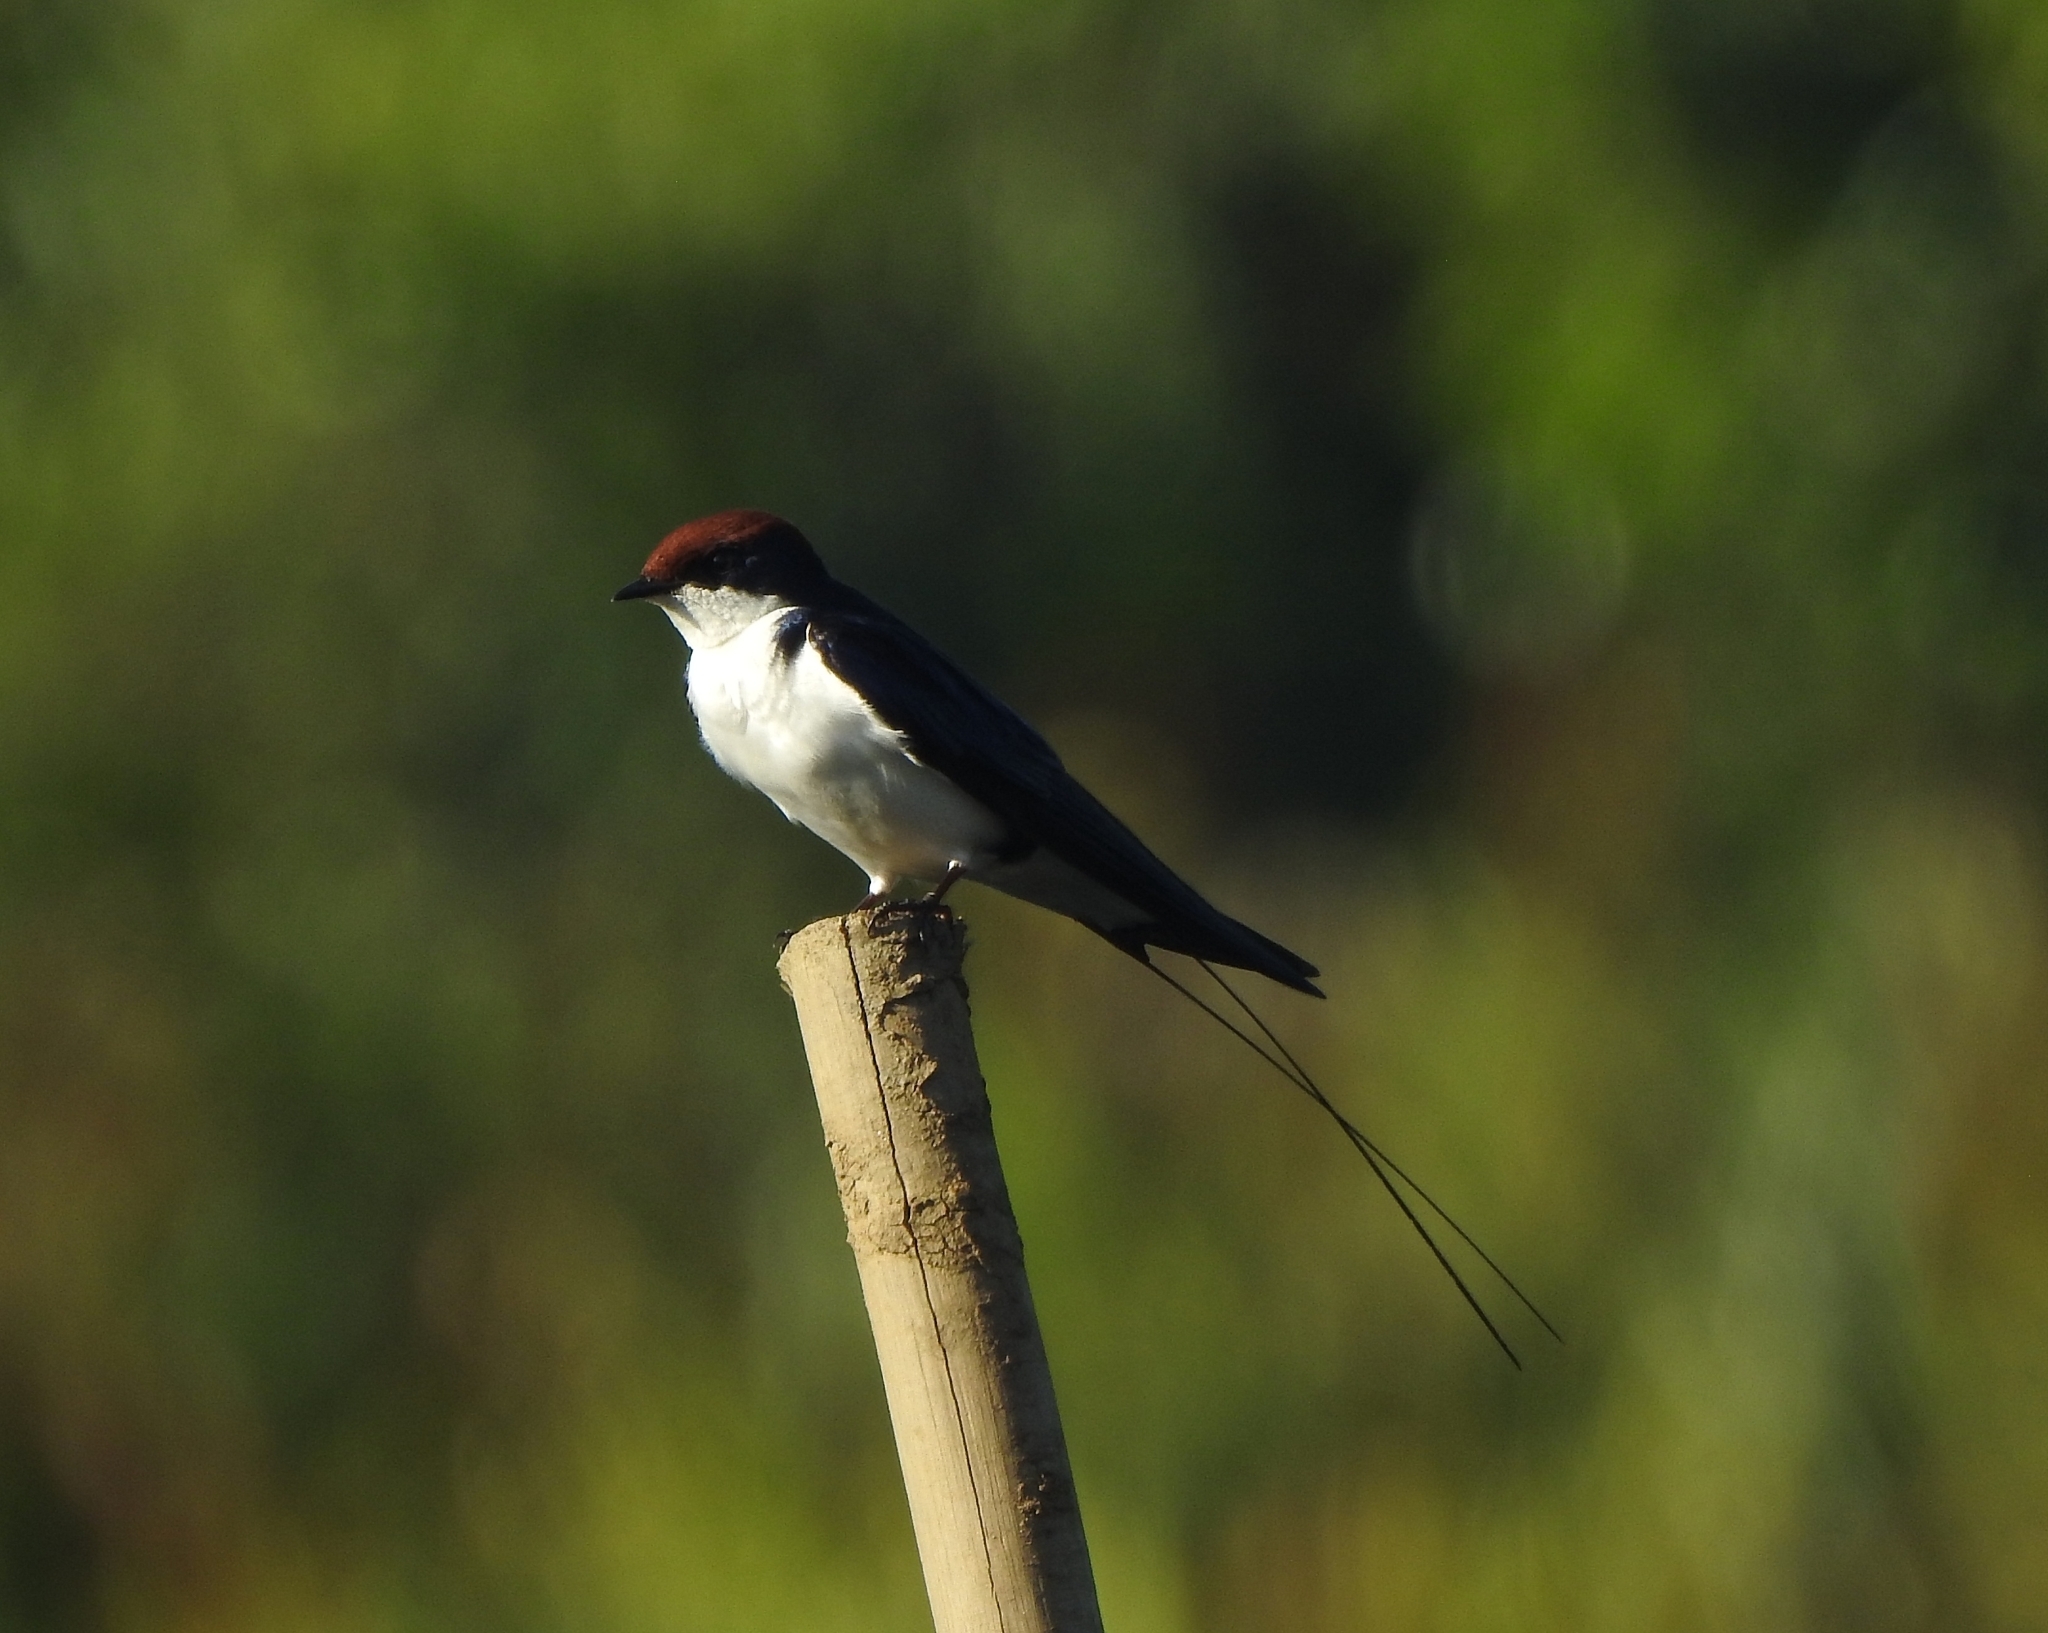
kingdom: Animalia
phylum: Chordata
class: Aves
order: Passeriformes
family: Hirundinidae
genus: Hirundo
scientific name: Hirundo smithii
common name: Wire-tailed swallow
